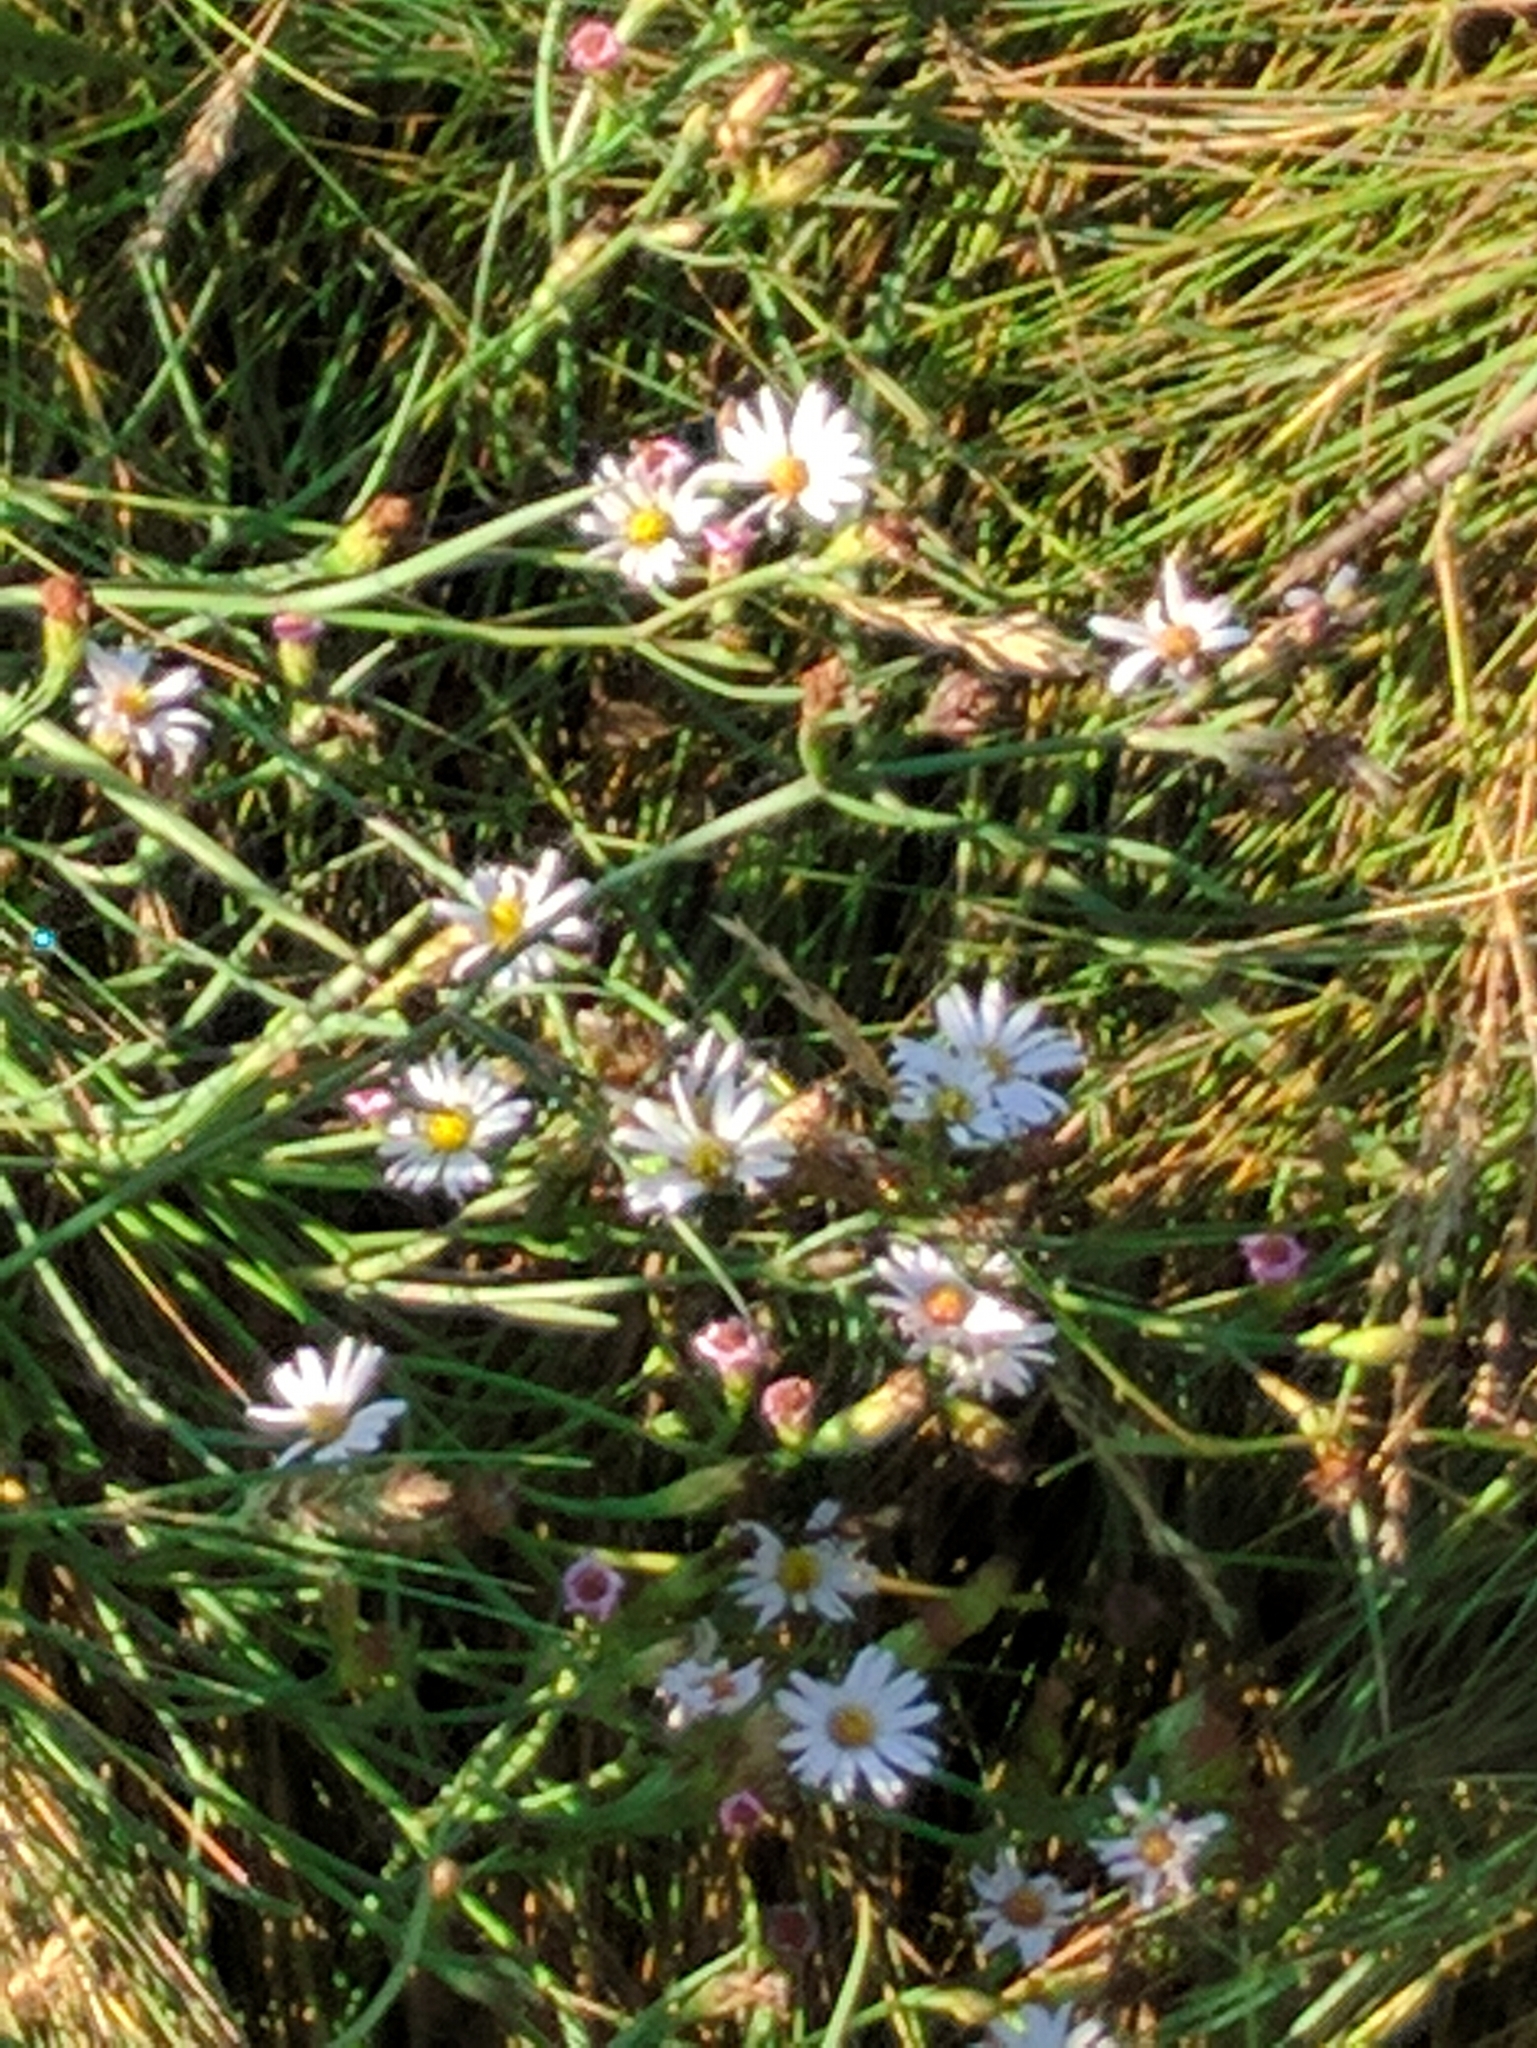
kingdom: Plantae
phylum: Tracheophyta
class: Magnoliopsida
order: Asterales
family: Asteraceae
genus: Symphyotrichum
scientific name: Symphyotrichum tenuifolium
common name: Perennial salt-marsh aster
